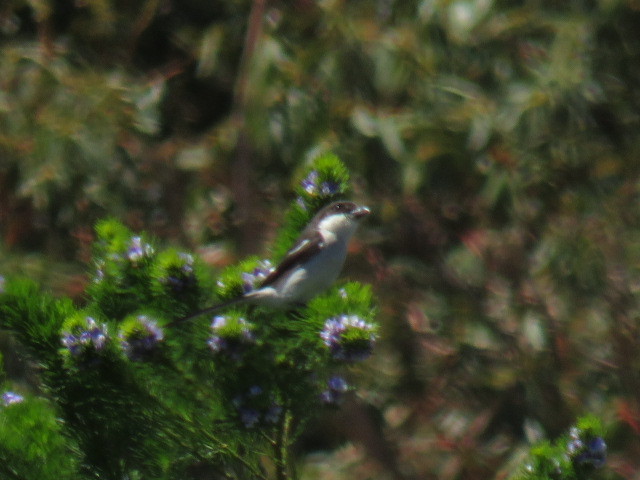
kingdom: Animalia
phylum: Chordata
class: Aves
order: Passeriformes
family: Laniidae
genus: Lanius
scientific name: Lanius collaris
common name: Southern fiscal
